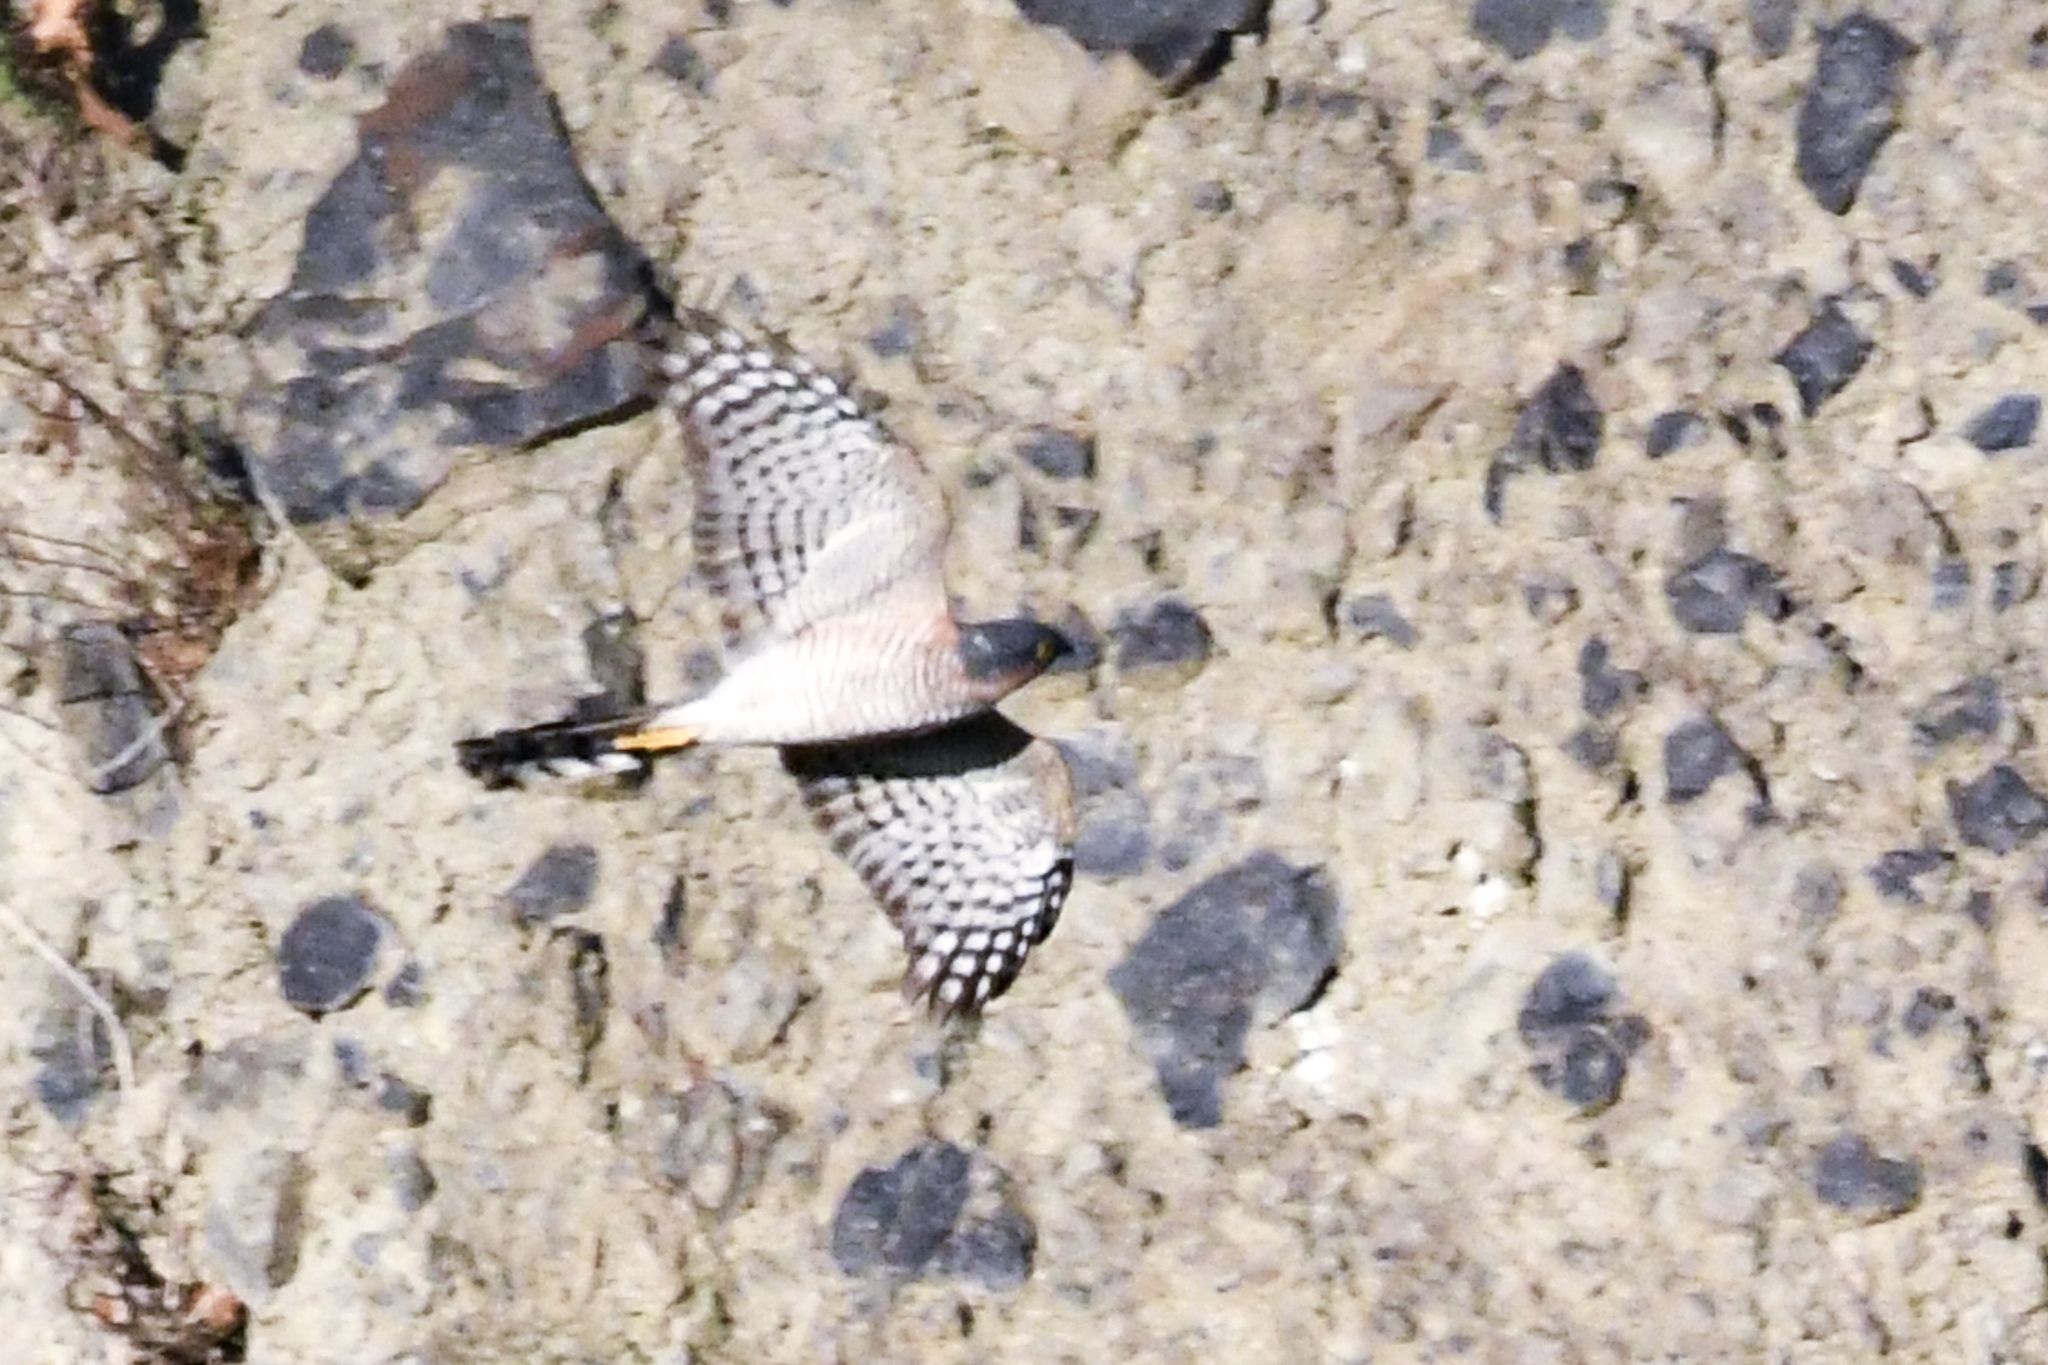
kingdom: Animalia
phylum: Chordata
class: Aves
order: Accipitriformes
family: Accipitridae
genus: Accipiter
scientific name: Accipiter nisus
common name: Eurasian sparrowhawk
